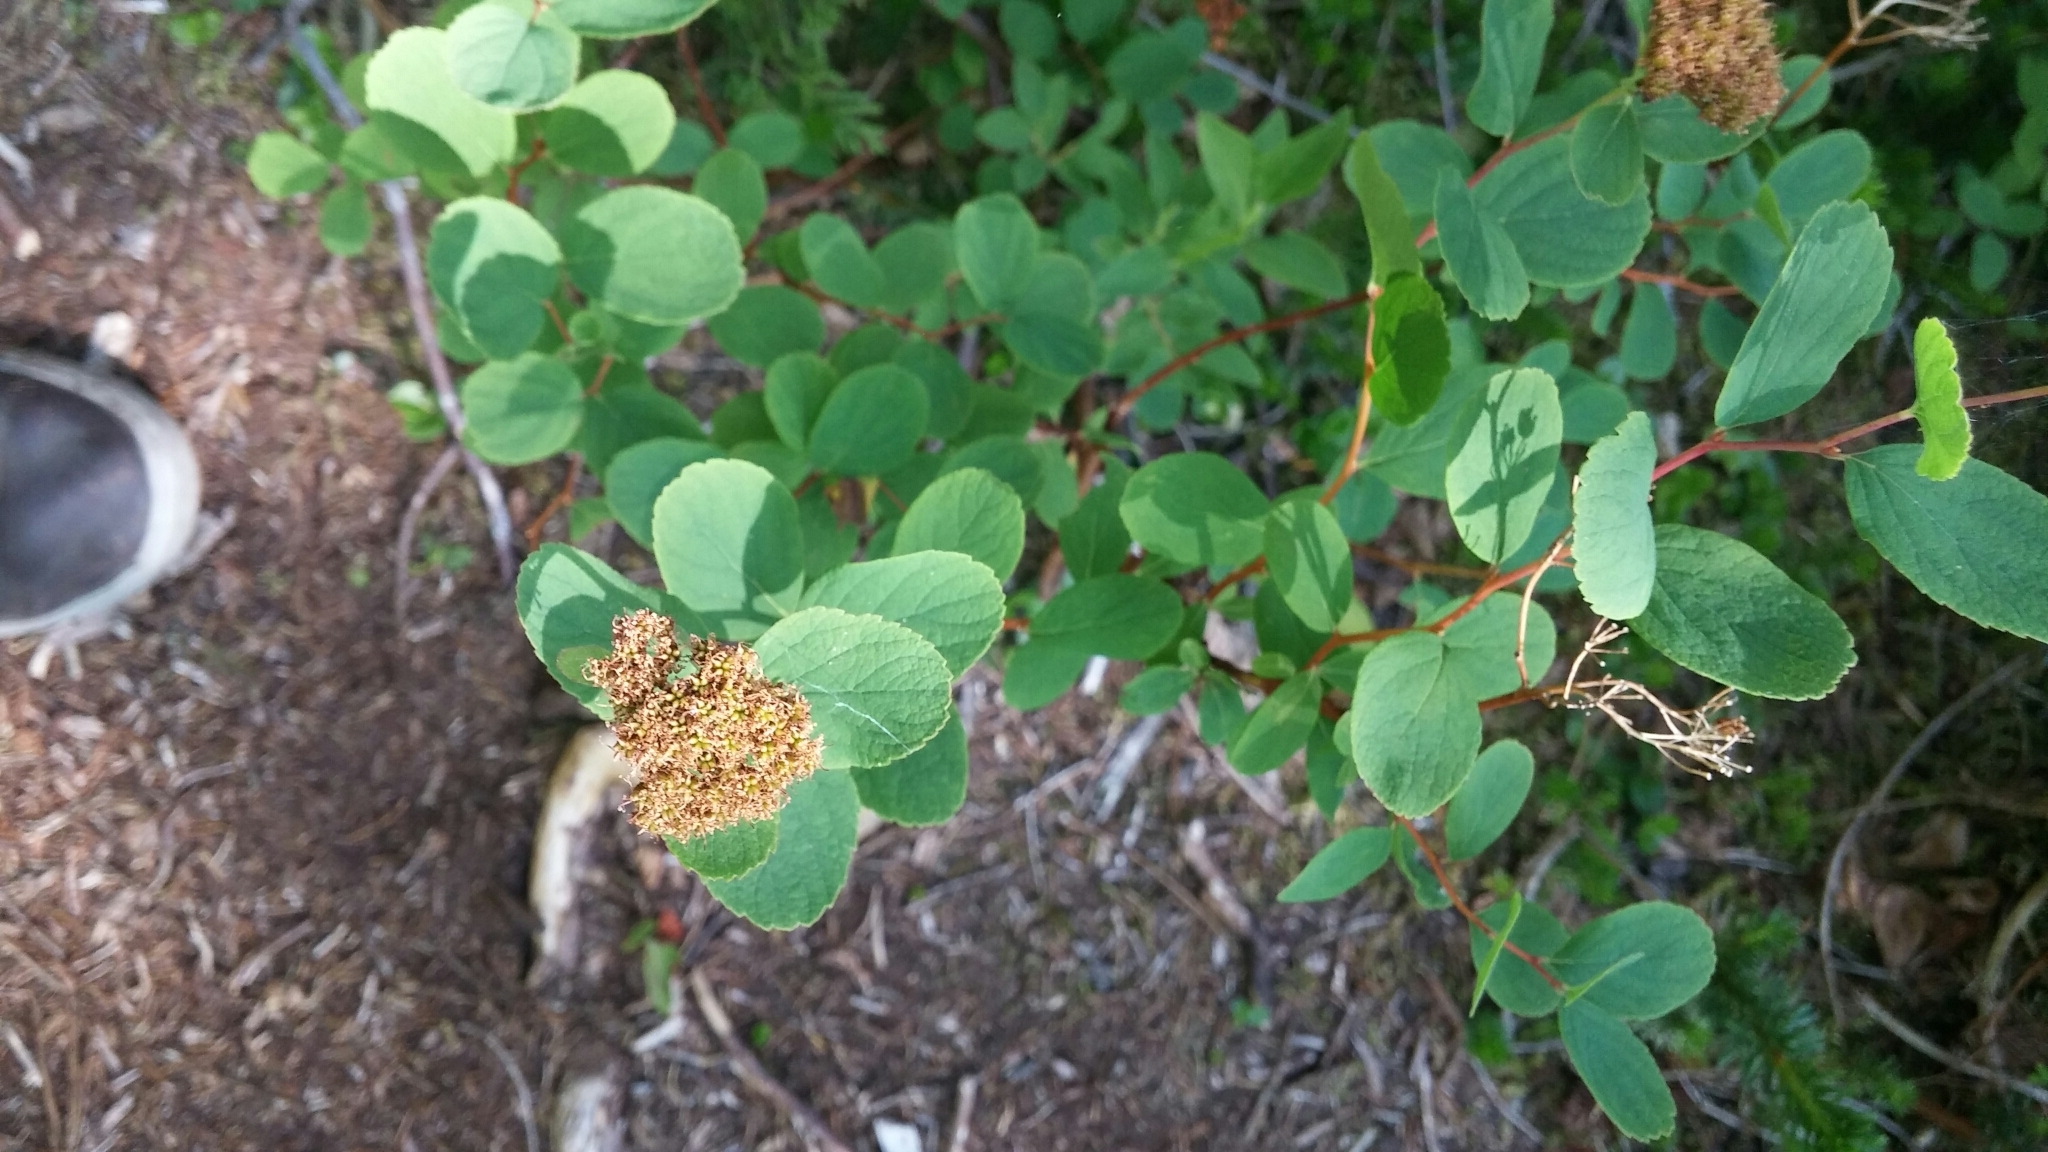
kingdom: Plantae
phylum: Tracheophyta
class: Magnoliopsida
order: Rosales
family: Rosaceae
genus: Spiraea
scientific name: Spiraea splendens
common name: Subalpine meadowsweet
